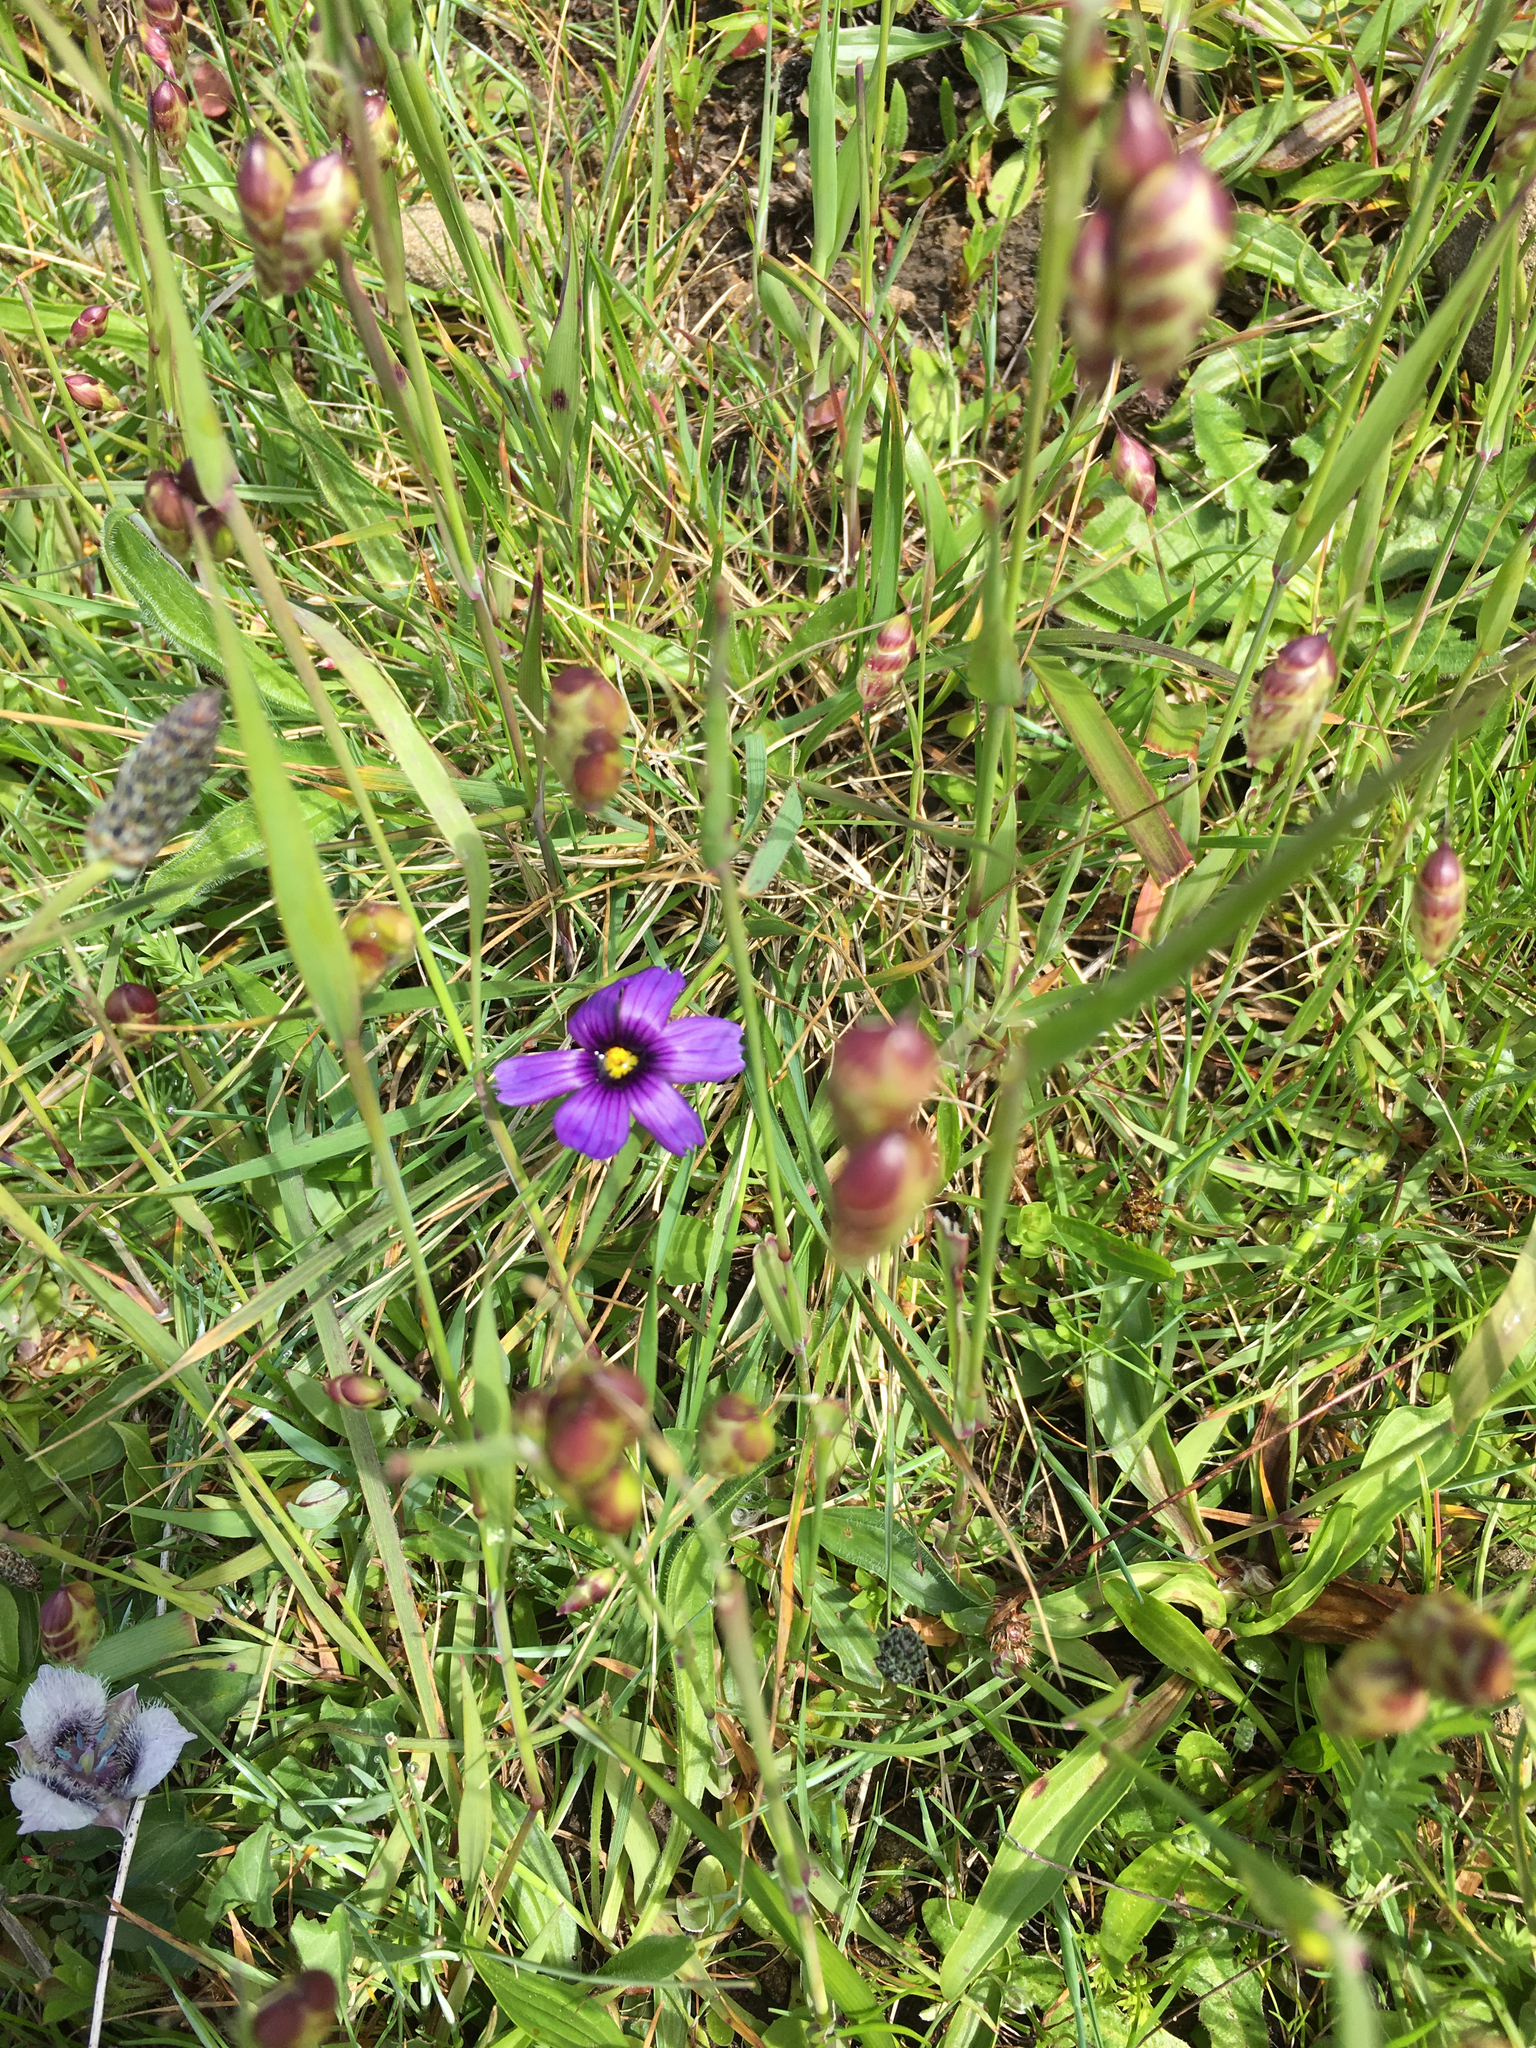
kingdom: Plantae
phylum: Tracheophyta
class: Liliopsida
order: Asparagales
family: Iridaceae
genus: Sisyrinchium
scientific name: Sisyrinchium bellum
